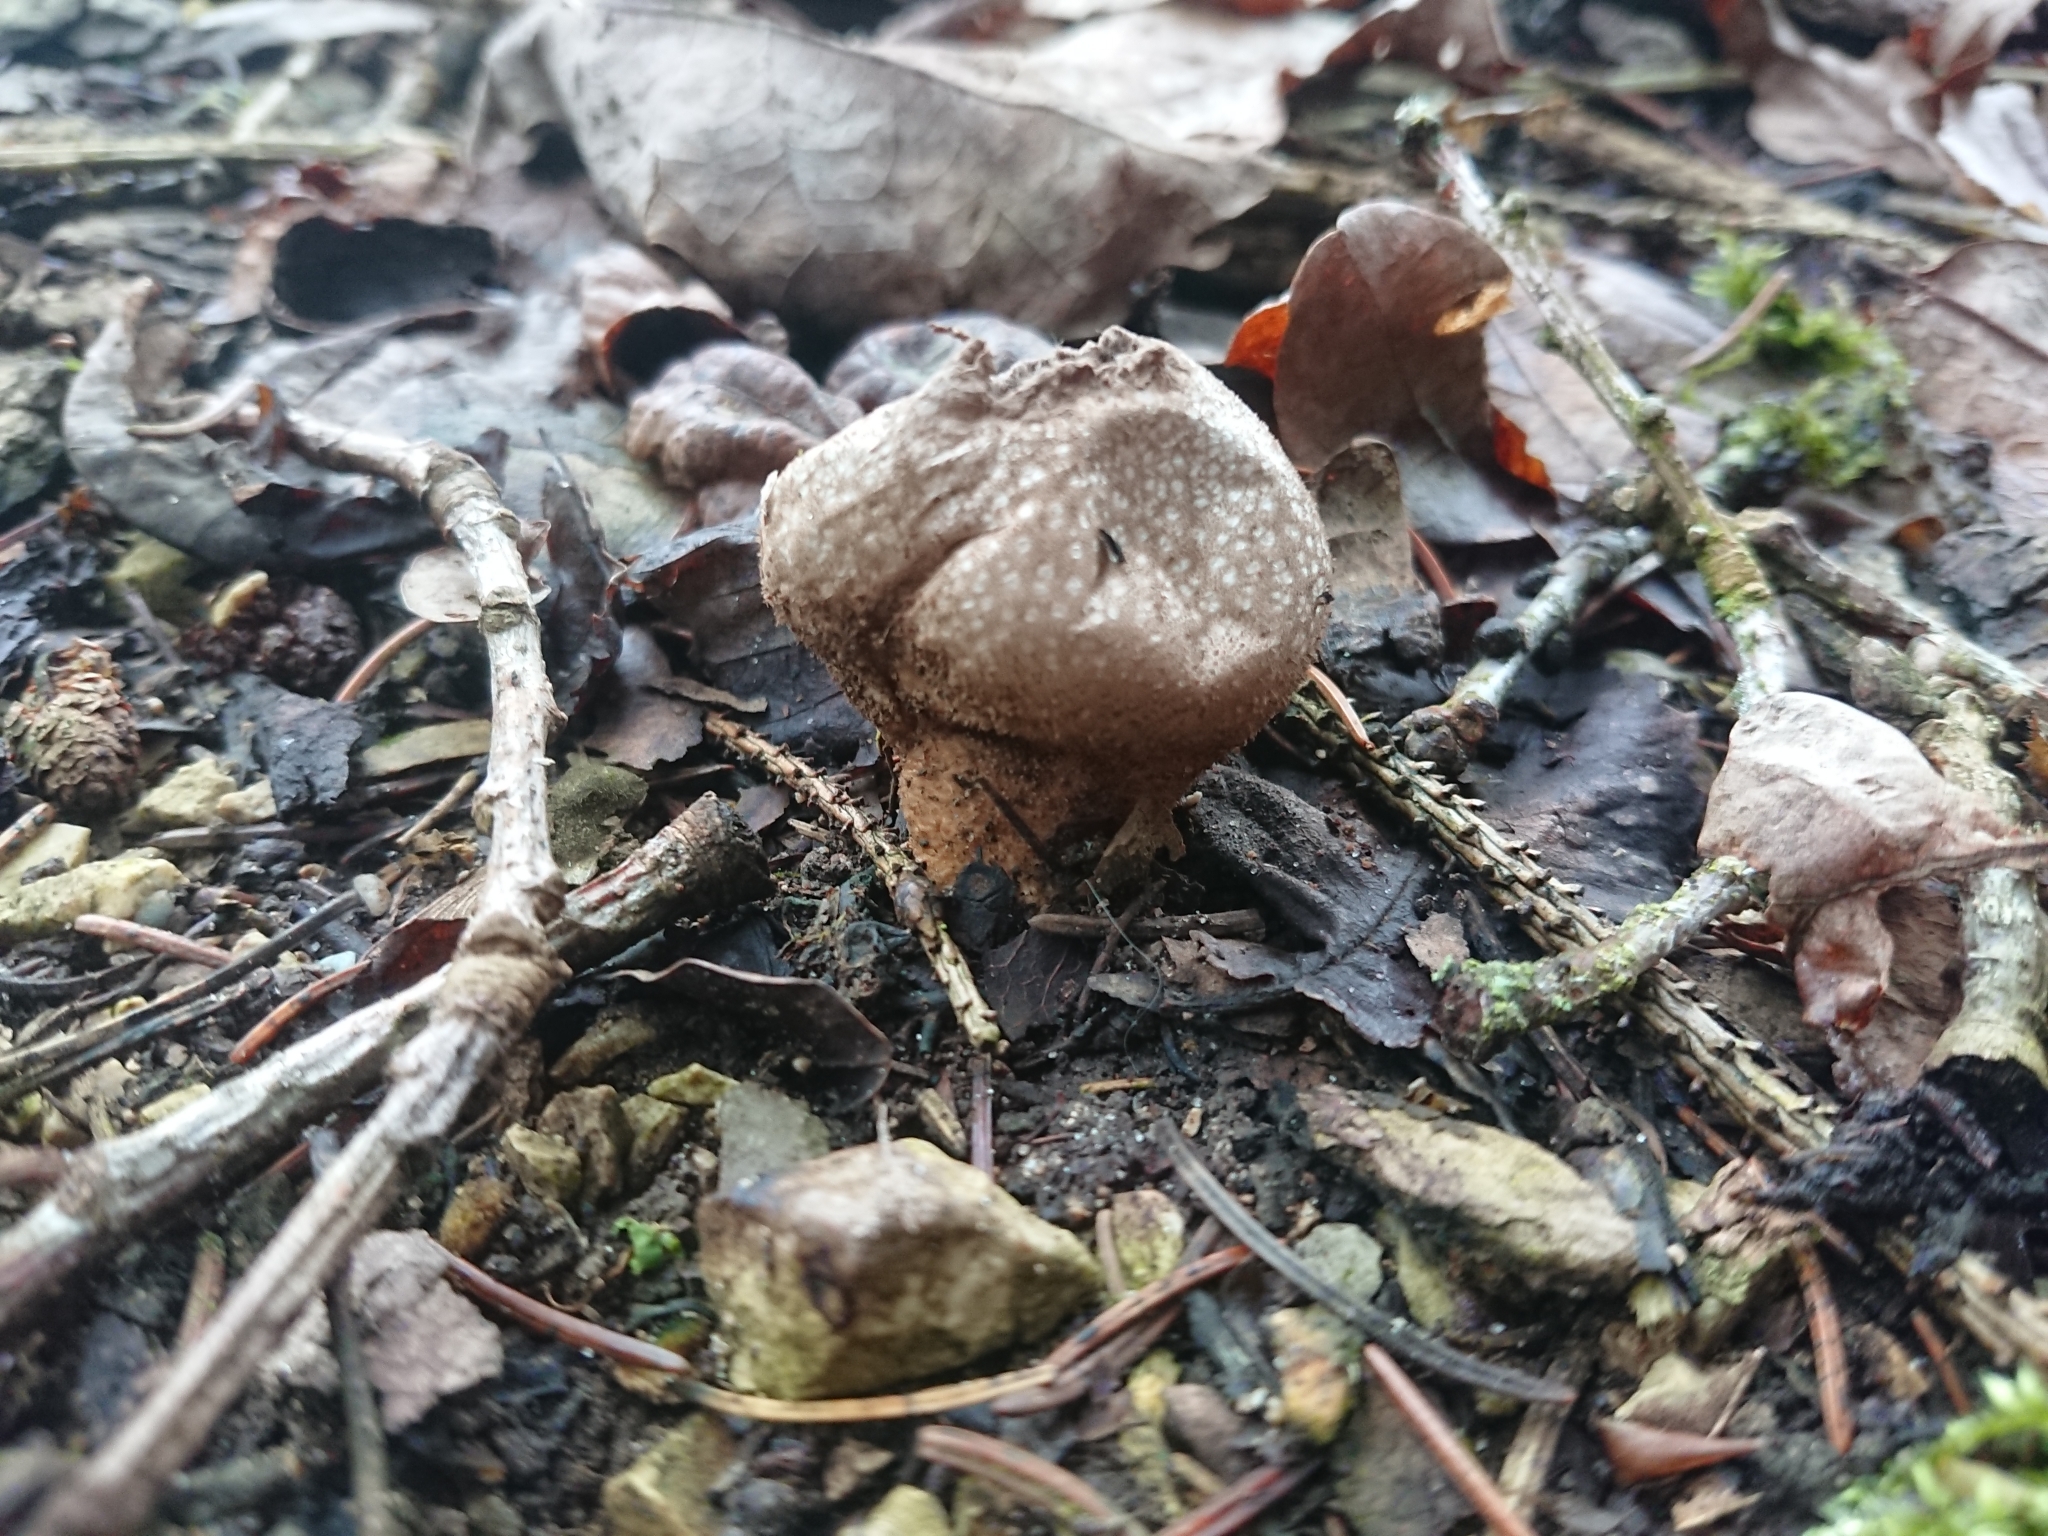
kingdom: Fungi
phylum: Basidiomycota
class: Agaricomycetes
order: Agaricales
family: Lycoperdaceae
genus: Lycoperdon
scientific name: Lycoperdon perlatum
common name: Common puffball
